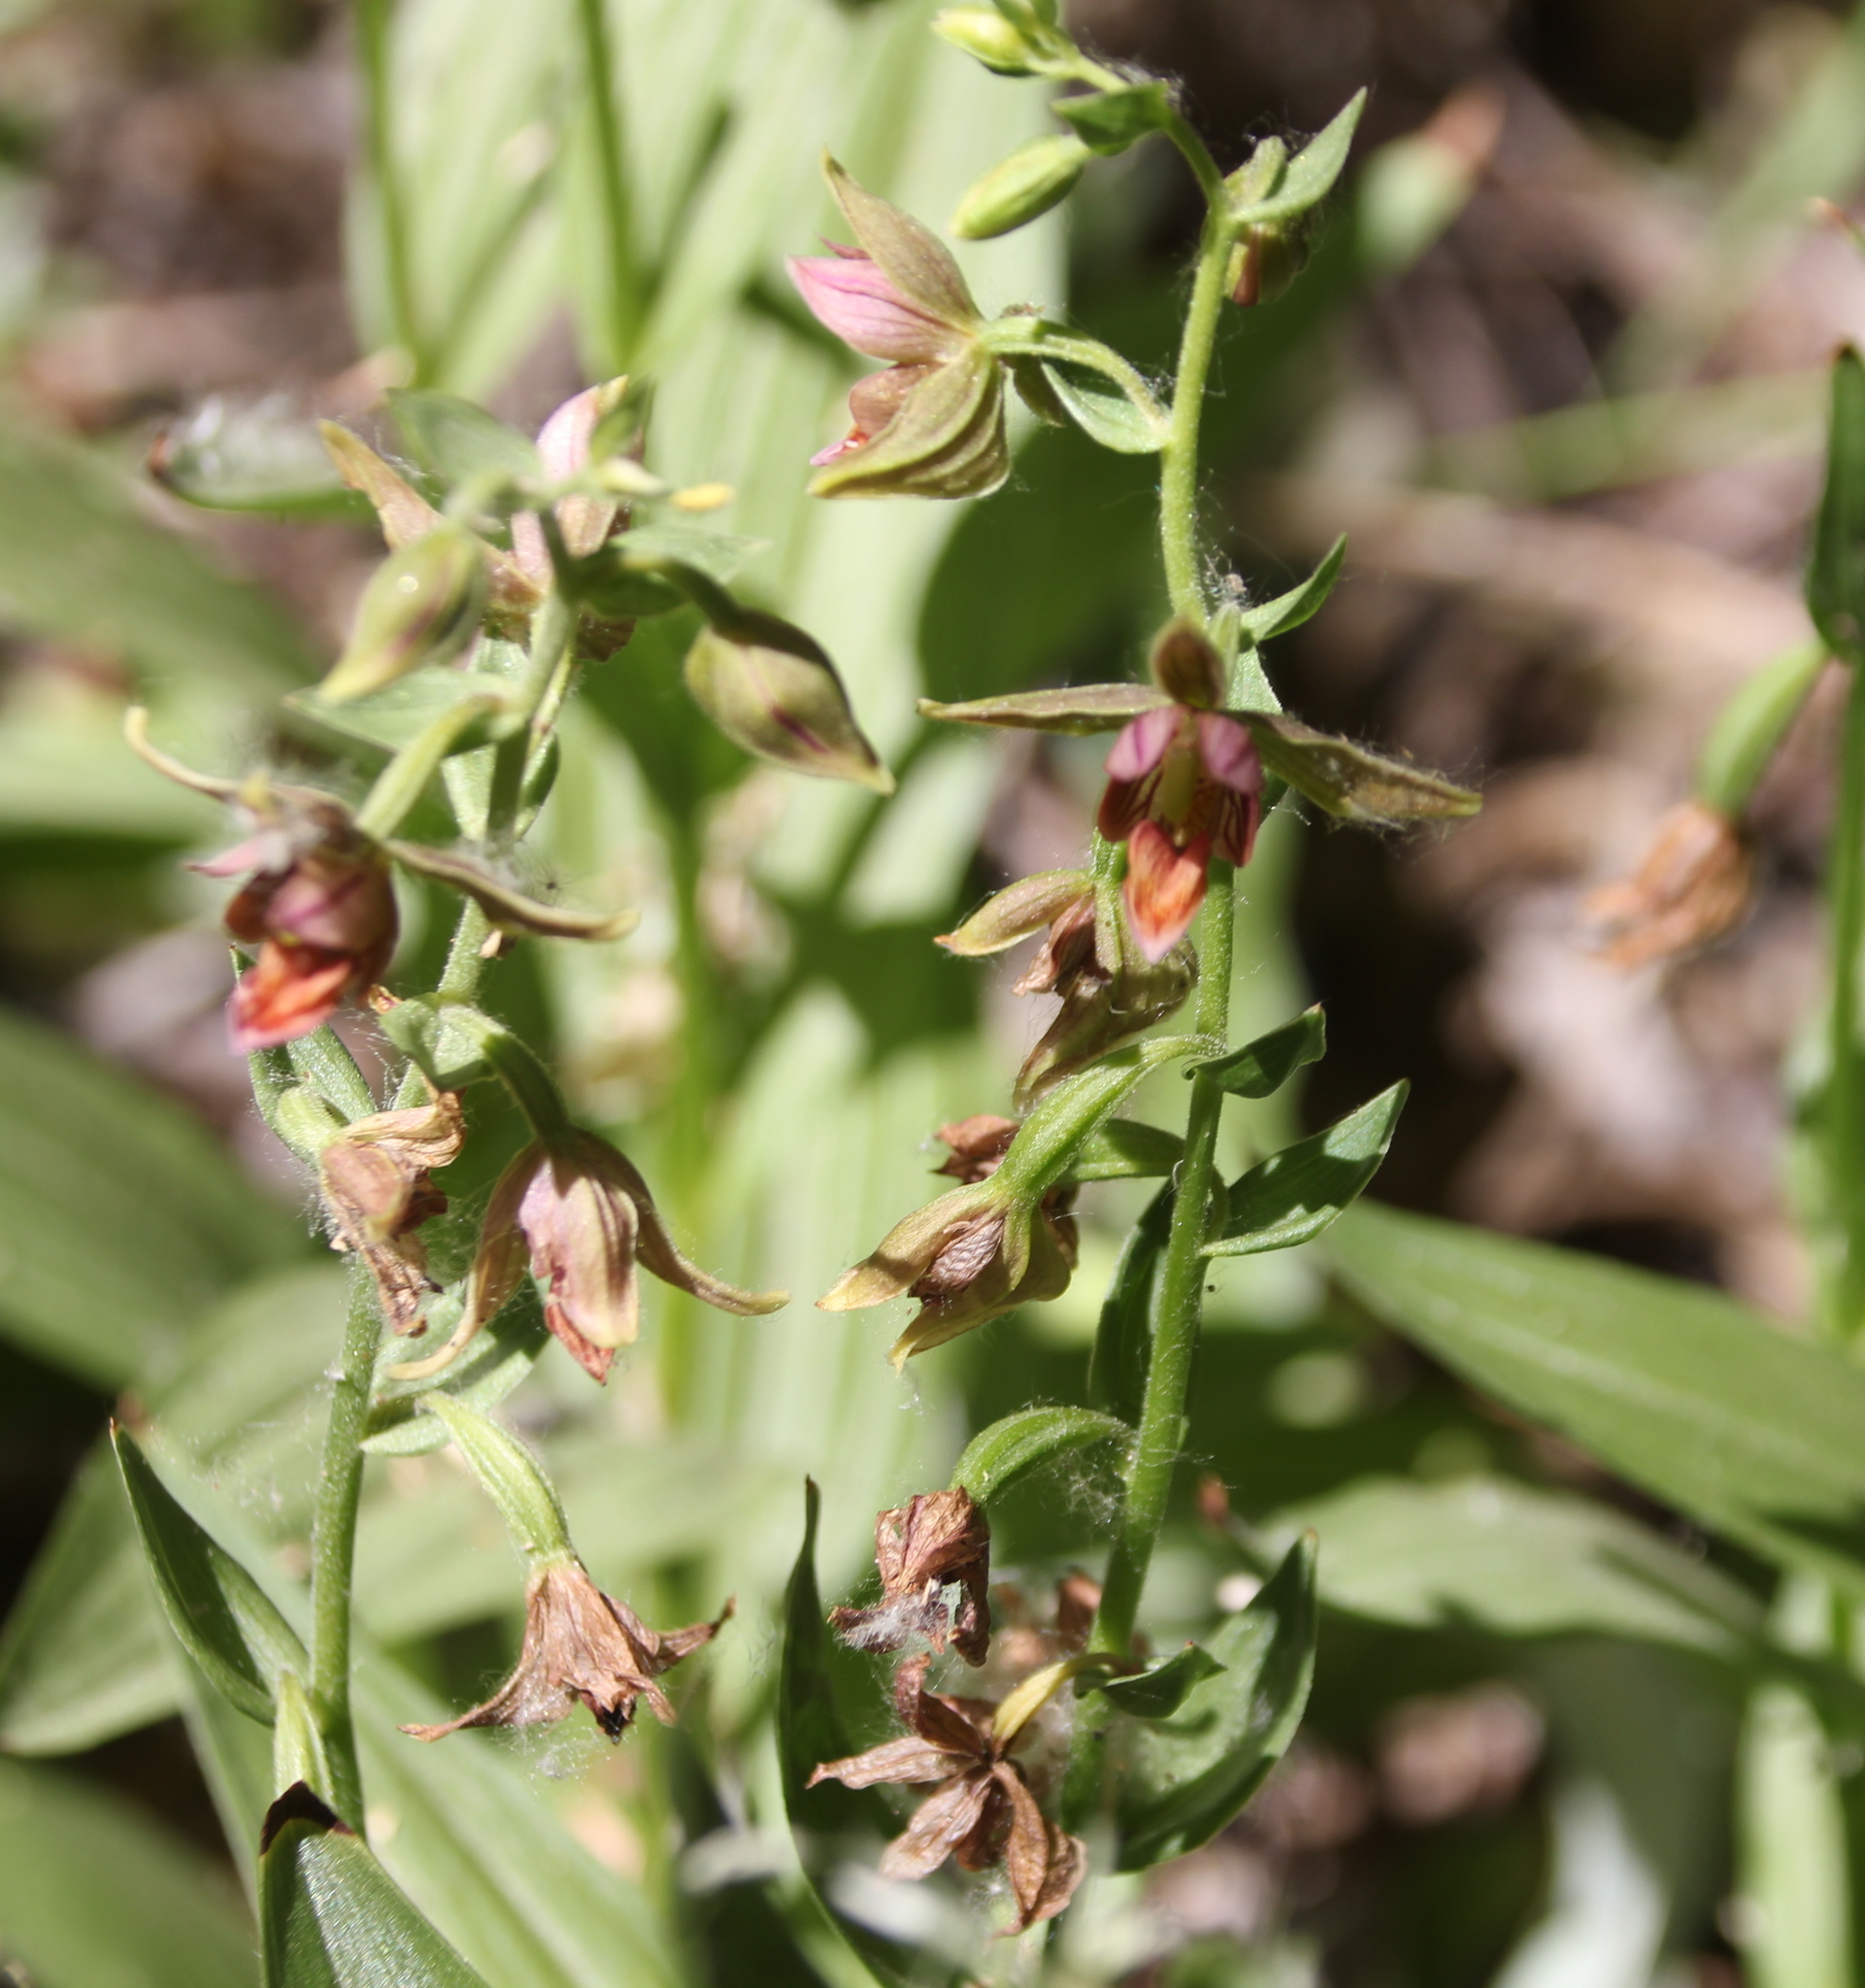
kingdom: Plantae
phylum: Tracheophyta
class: Liliopsida
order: Asparagales
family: Orchidaceae
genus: Epipactis
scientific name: Epipactis gigantea
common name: Chatterbox
